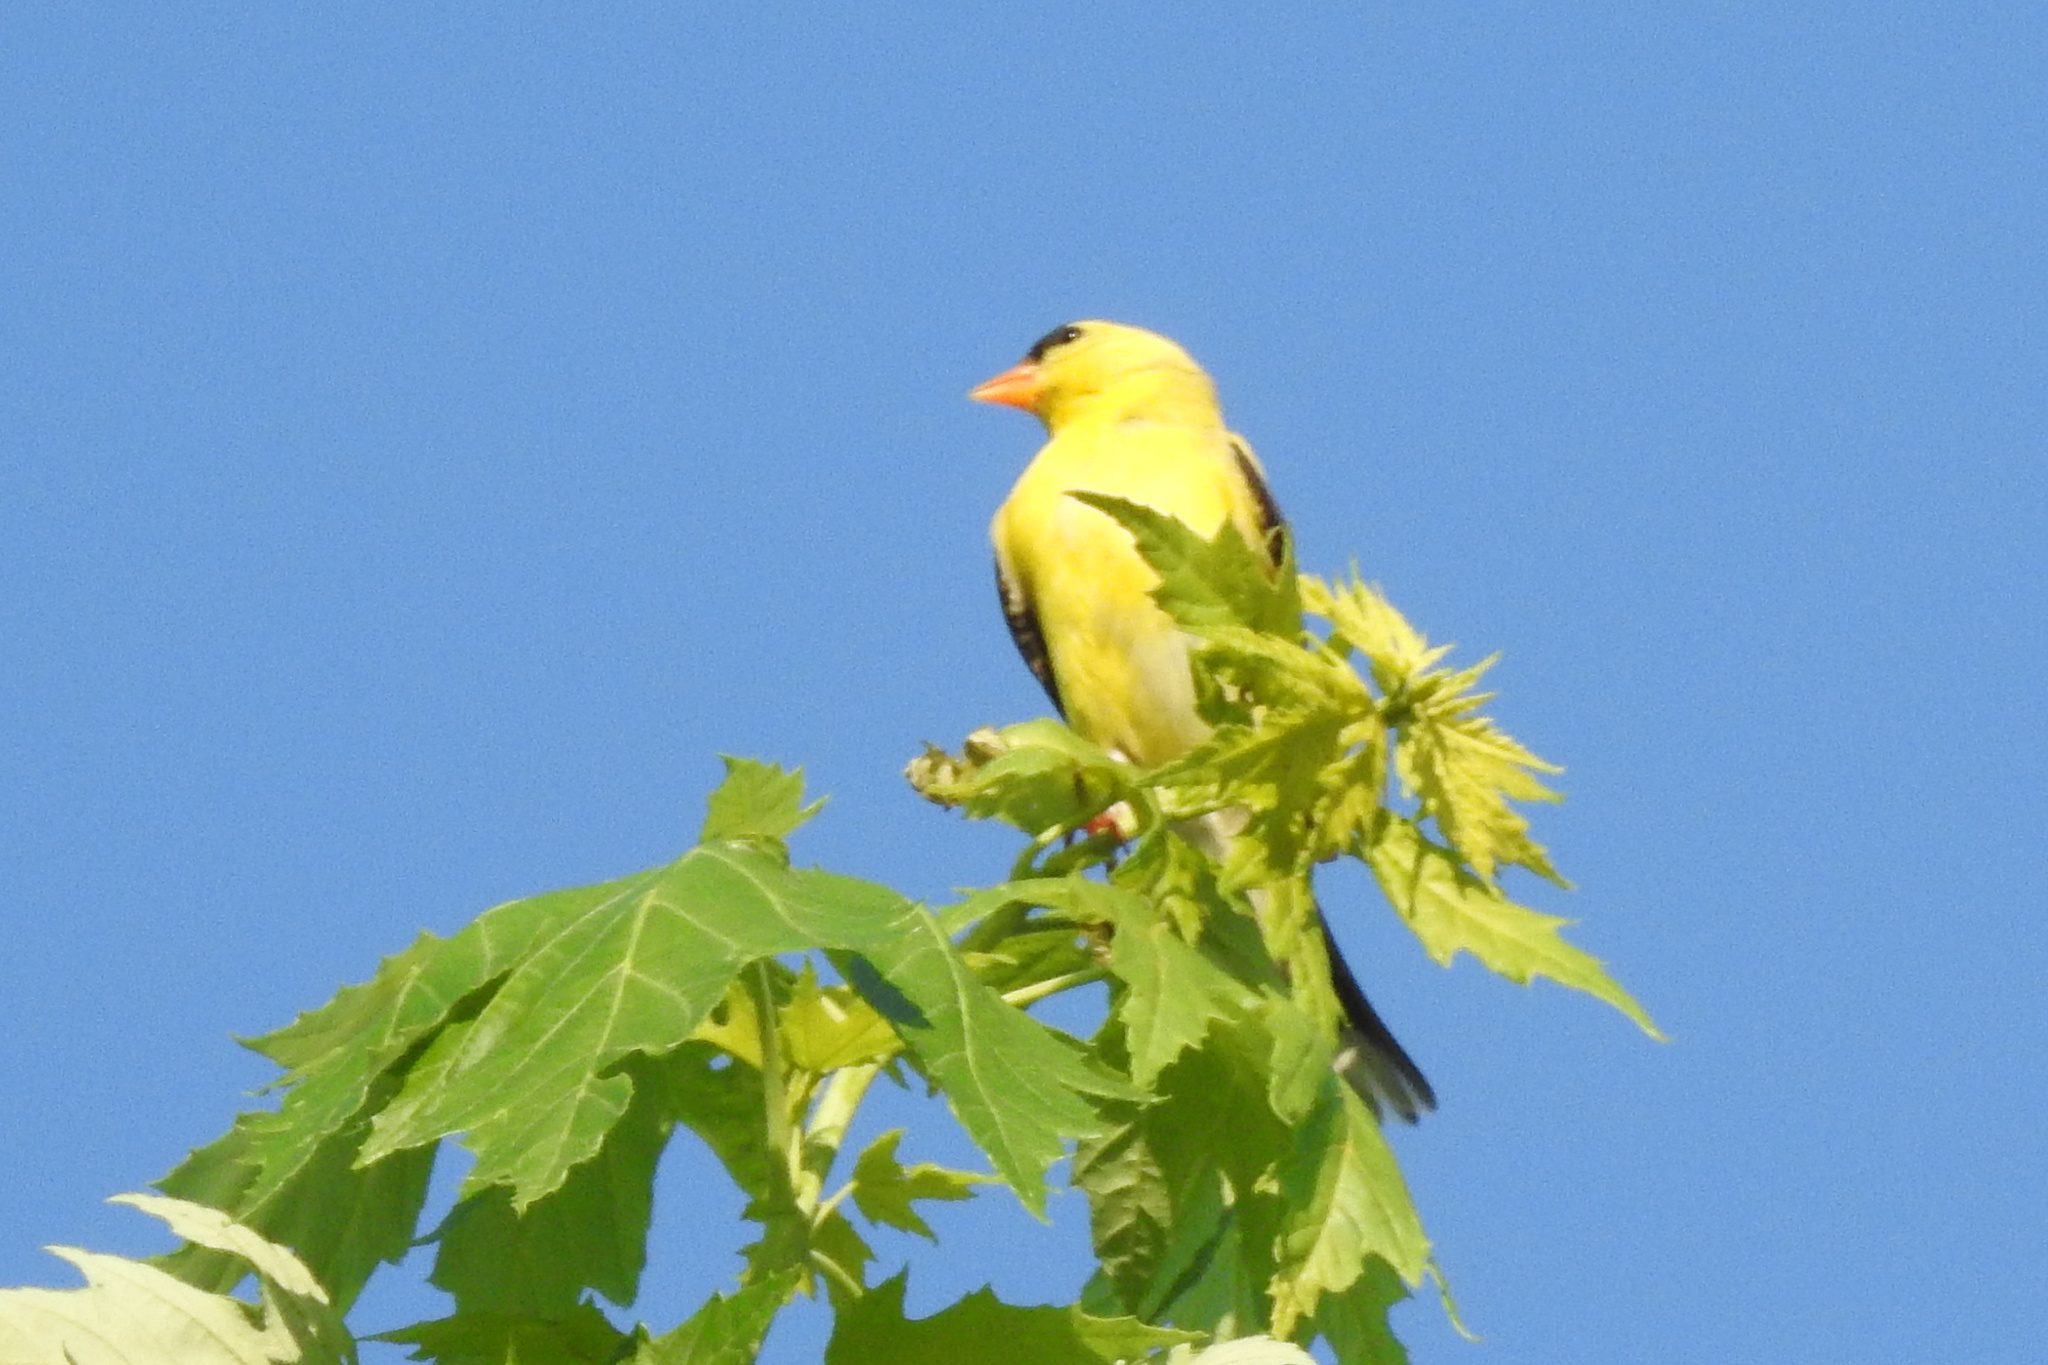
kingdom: Animalia
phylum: Chordata
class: Aves
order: Passeriformes
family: Fringillidae
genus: Spinus
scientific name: Spinus tristis
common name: American goldfinch
